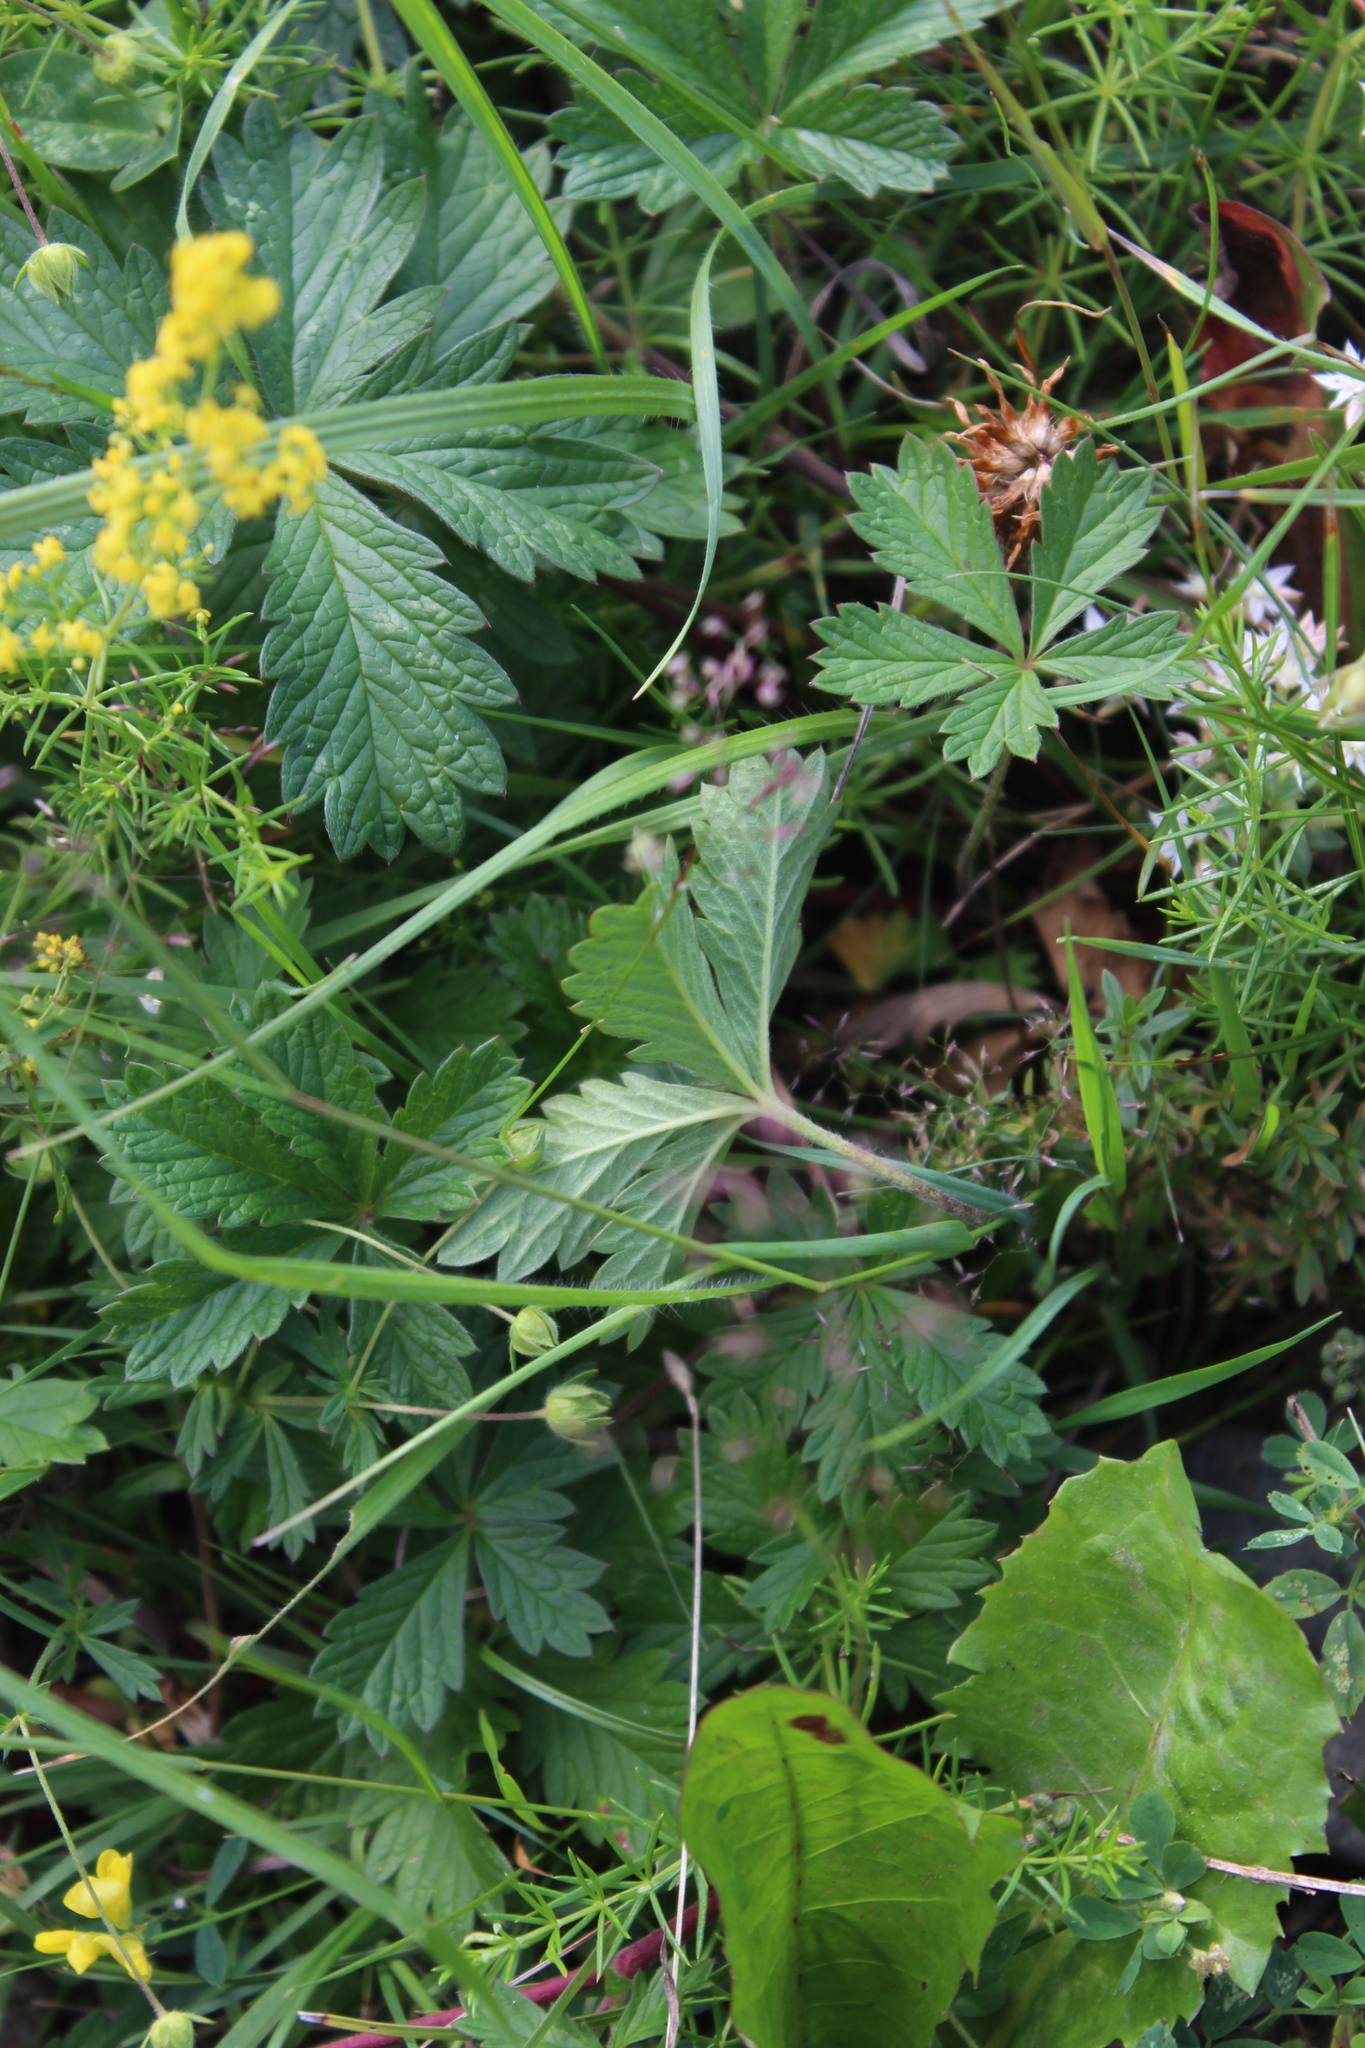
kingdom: Plantae
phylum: Tracheophyta
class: Magnoliopsida
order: Rosales
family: Rosaceae
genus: Potentilla
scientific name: Potentilla thuringiaca
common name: European cinquefoil
